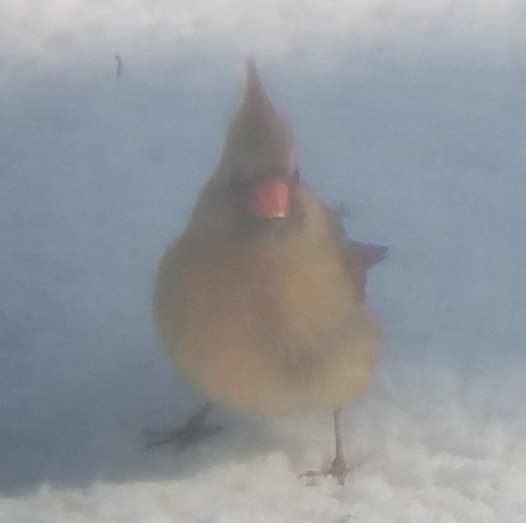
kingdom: Animalia
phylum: Chordata
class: Aves
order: Passeriformes
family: Cardinalidae
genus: Cardinalis
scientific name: Cardinalis cardinalis
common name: Northern cardinal
